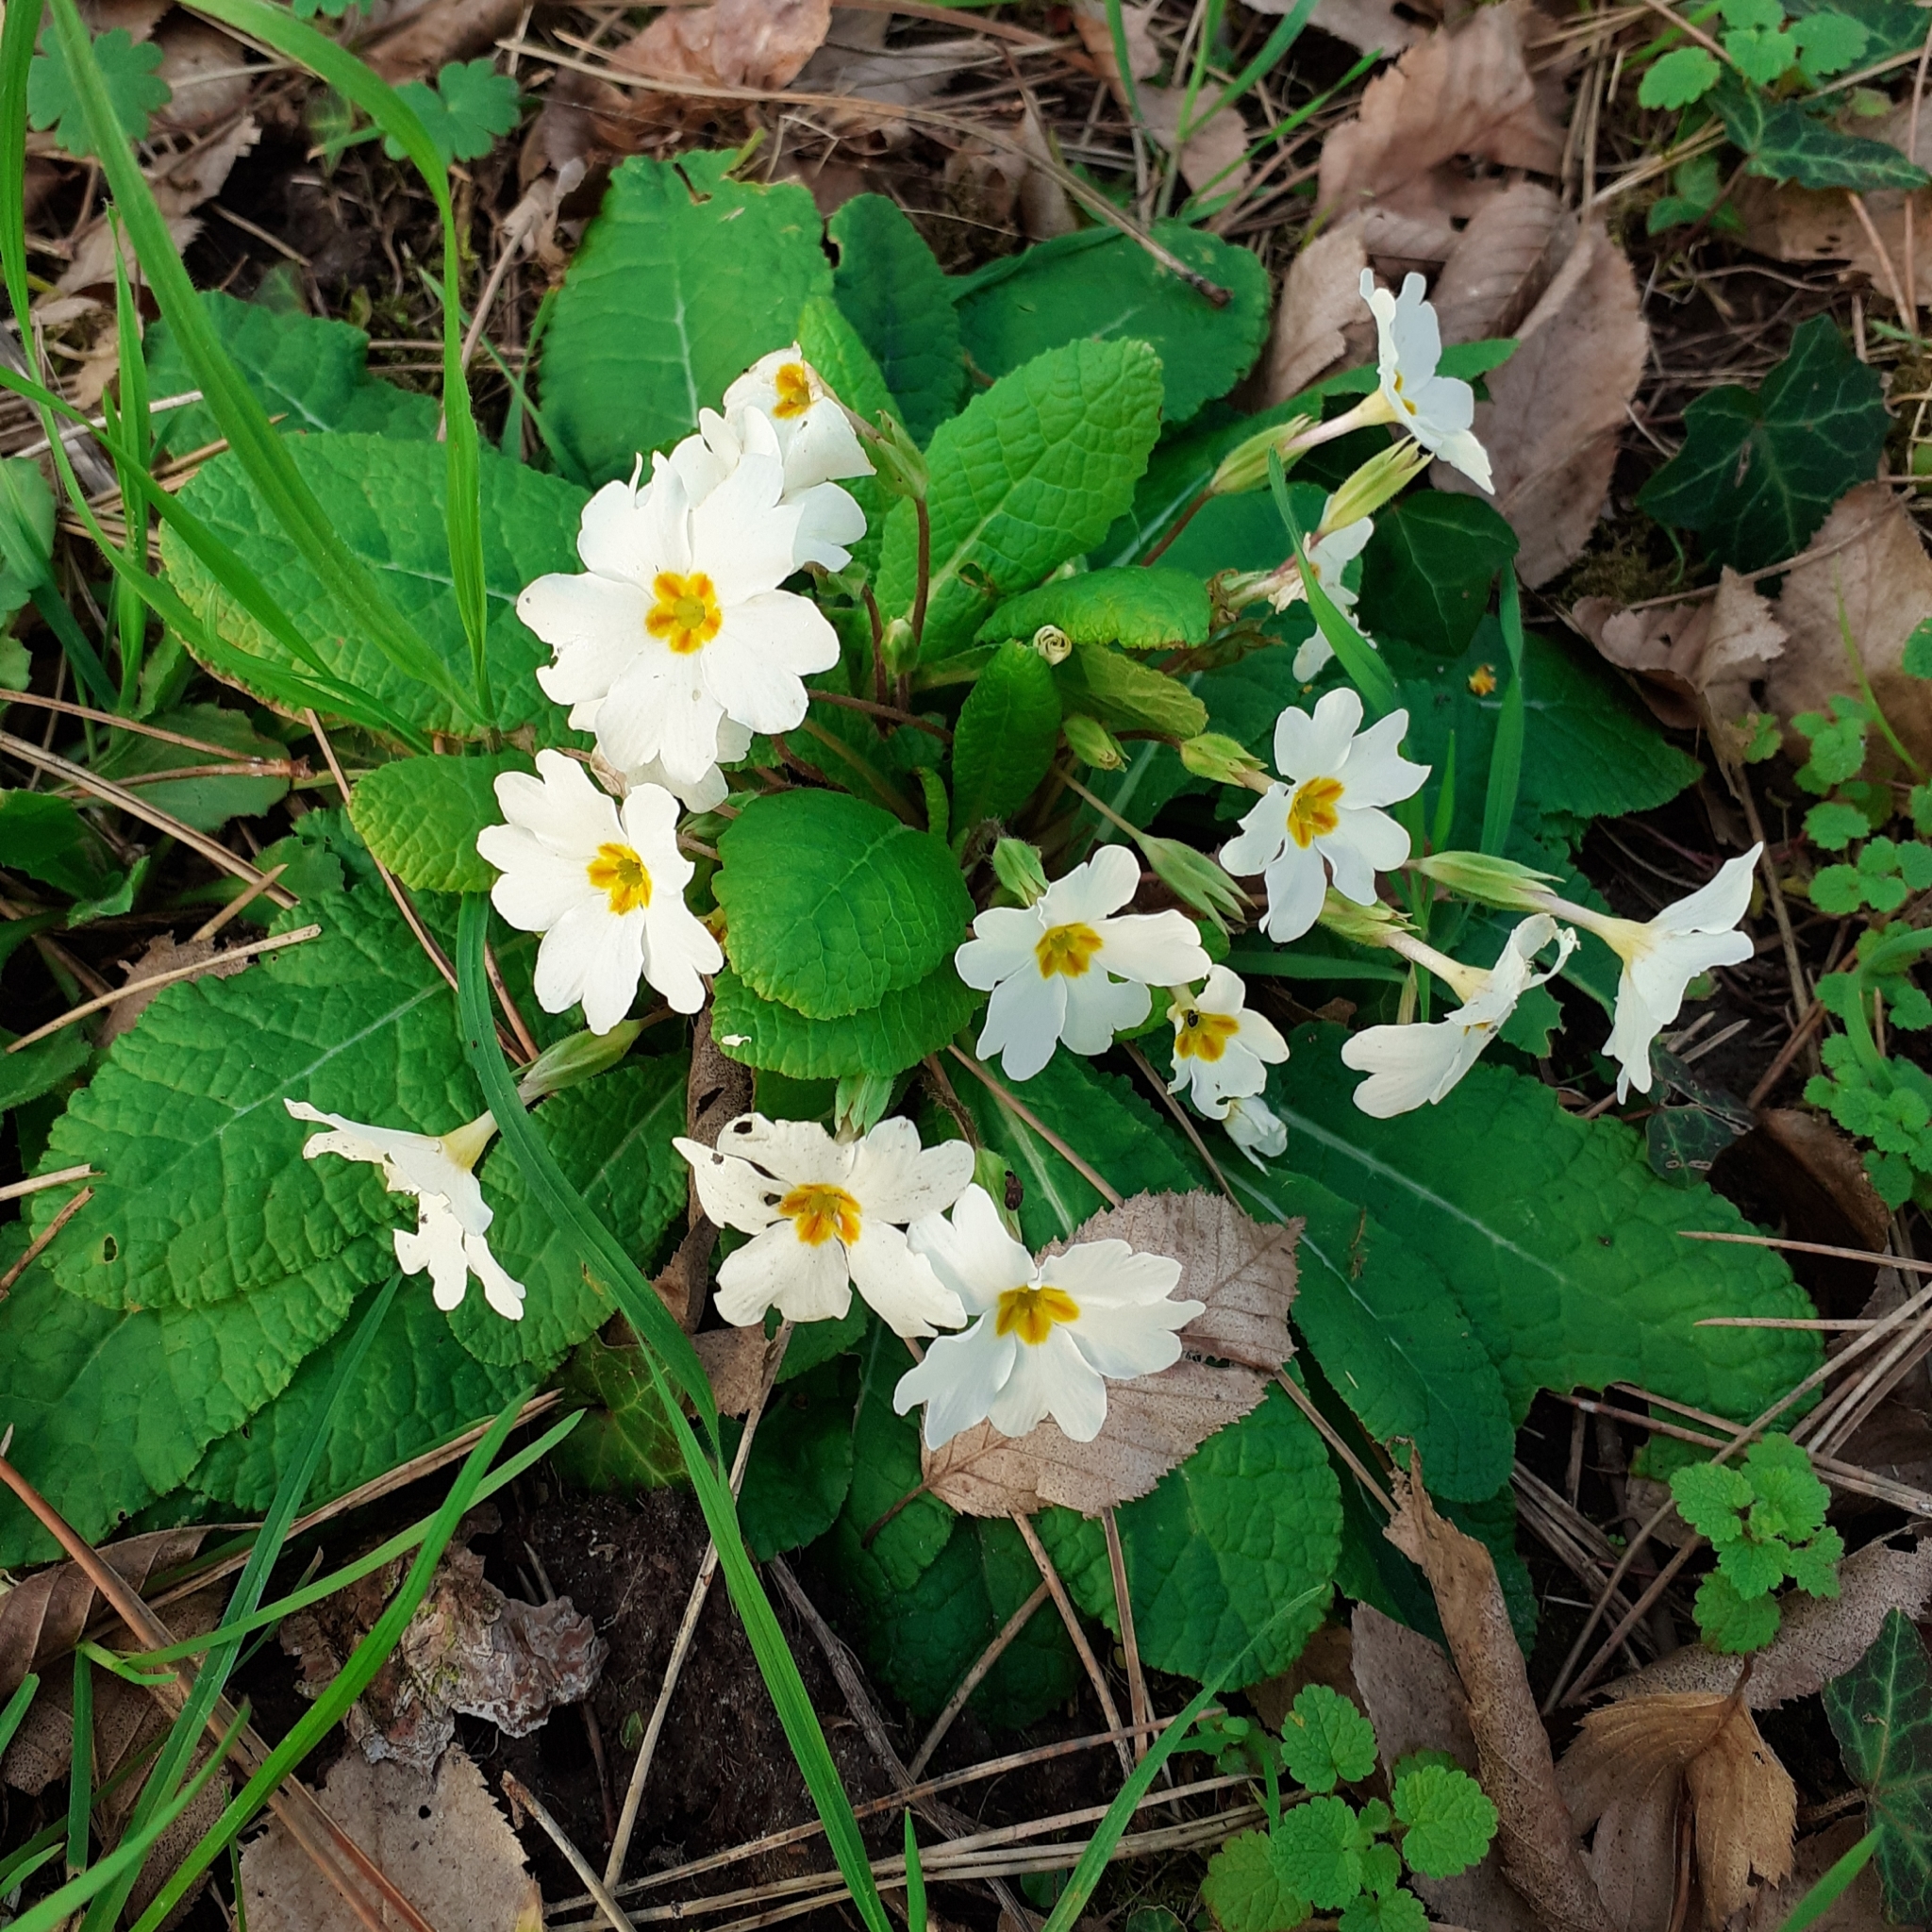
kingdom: Plantae
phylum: Tracheophyta
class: Magnoliopsida
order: Ericales
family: Primulaceae
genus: Primula
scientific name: Primula vulgaris
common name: Primrose
